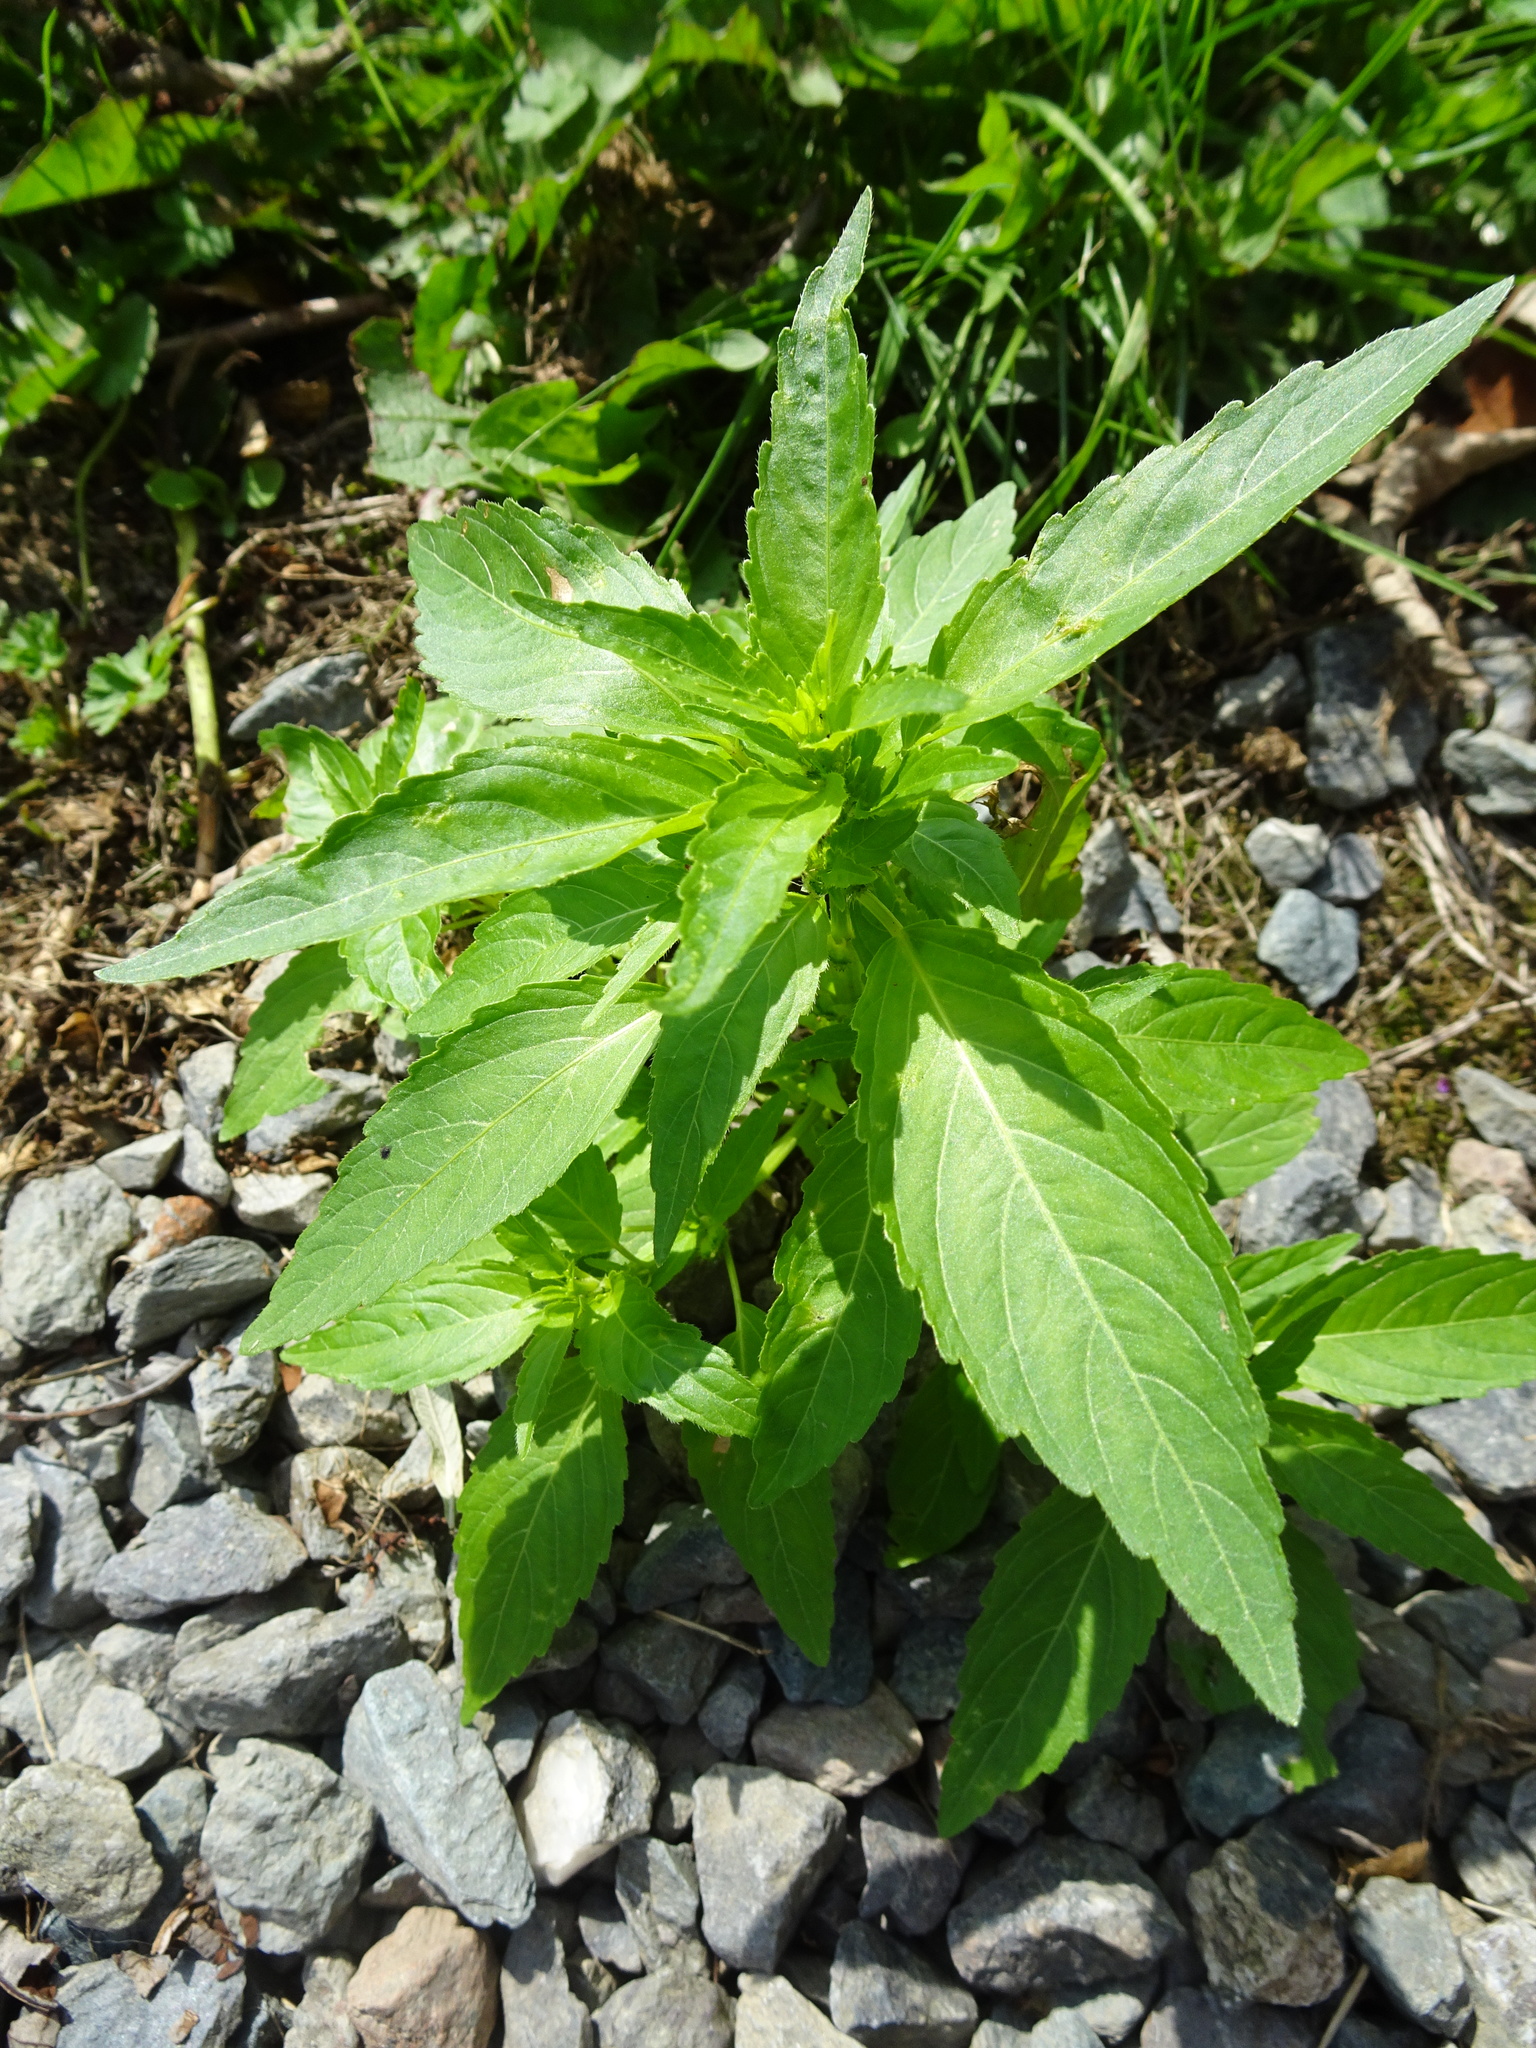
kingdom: Plantae
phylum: Tracheophyta
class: Magnoliopsida
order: Malpighiales
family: Euphorbiaceae
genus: Mercurialis
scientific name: Mercurialis annua
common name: Annual mercury
